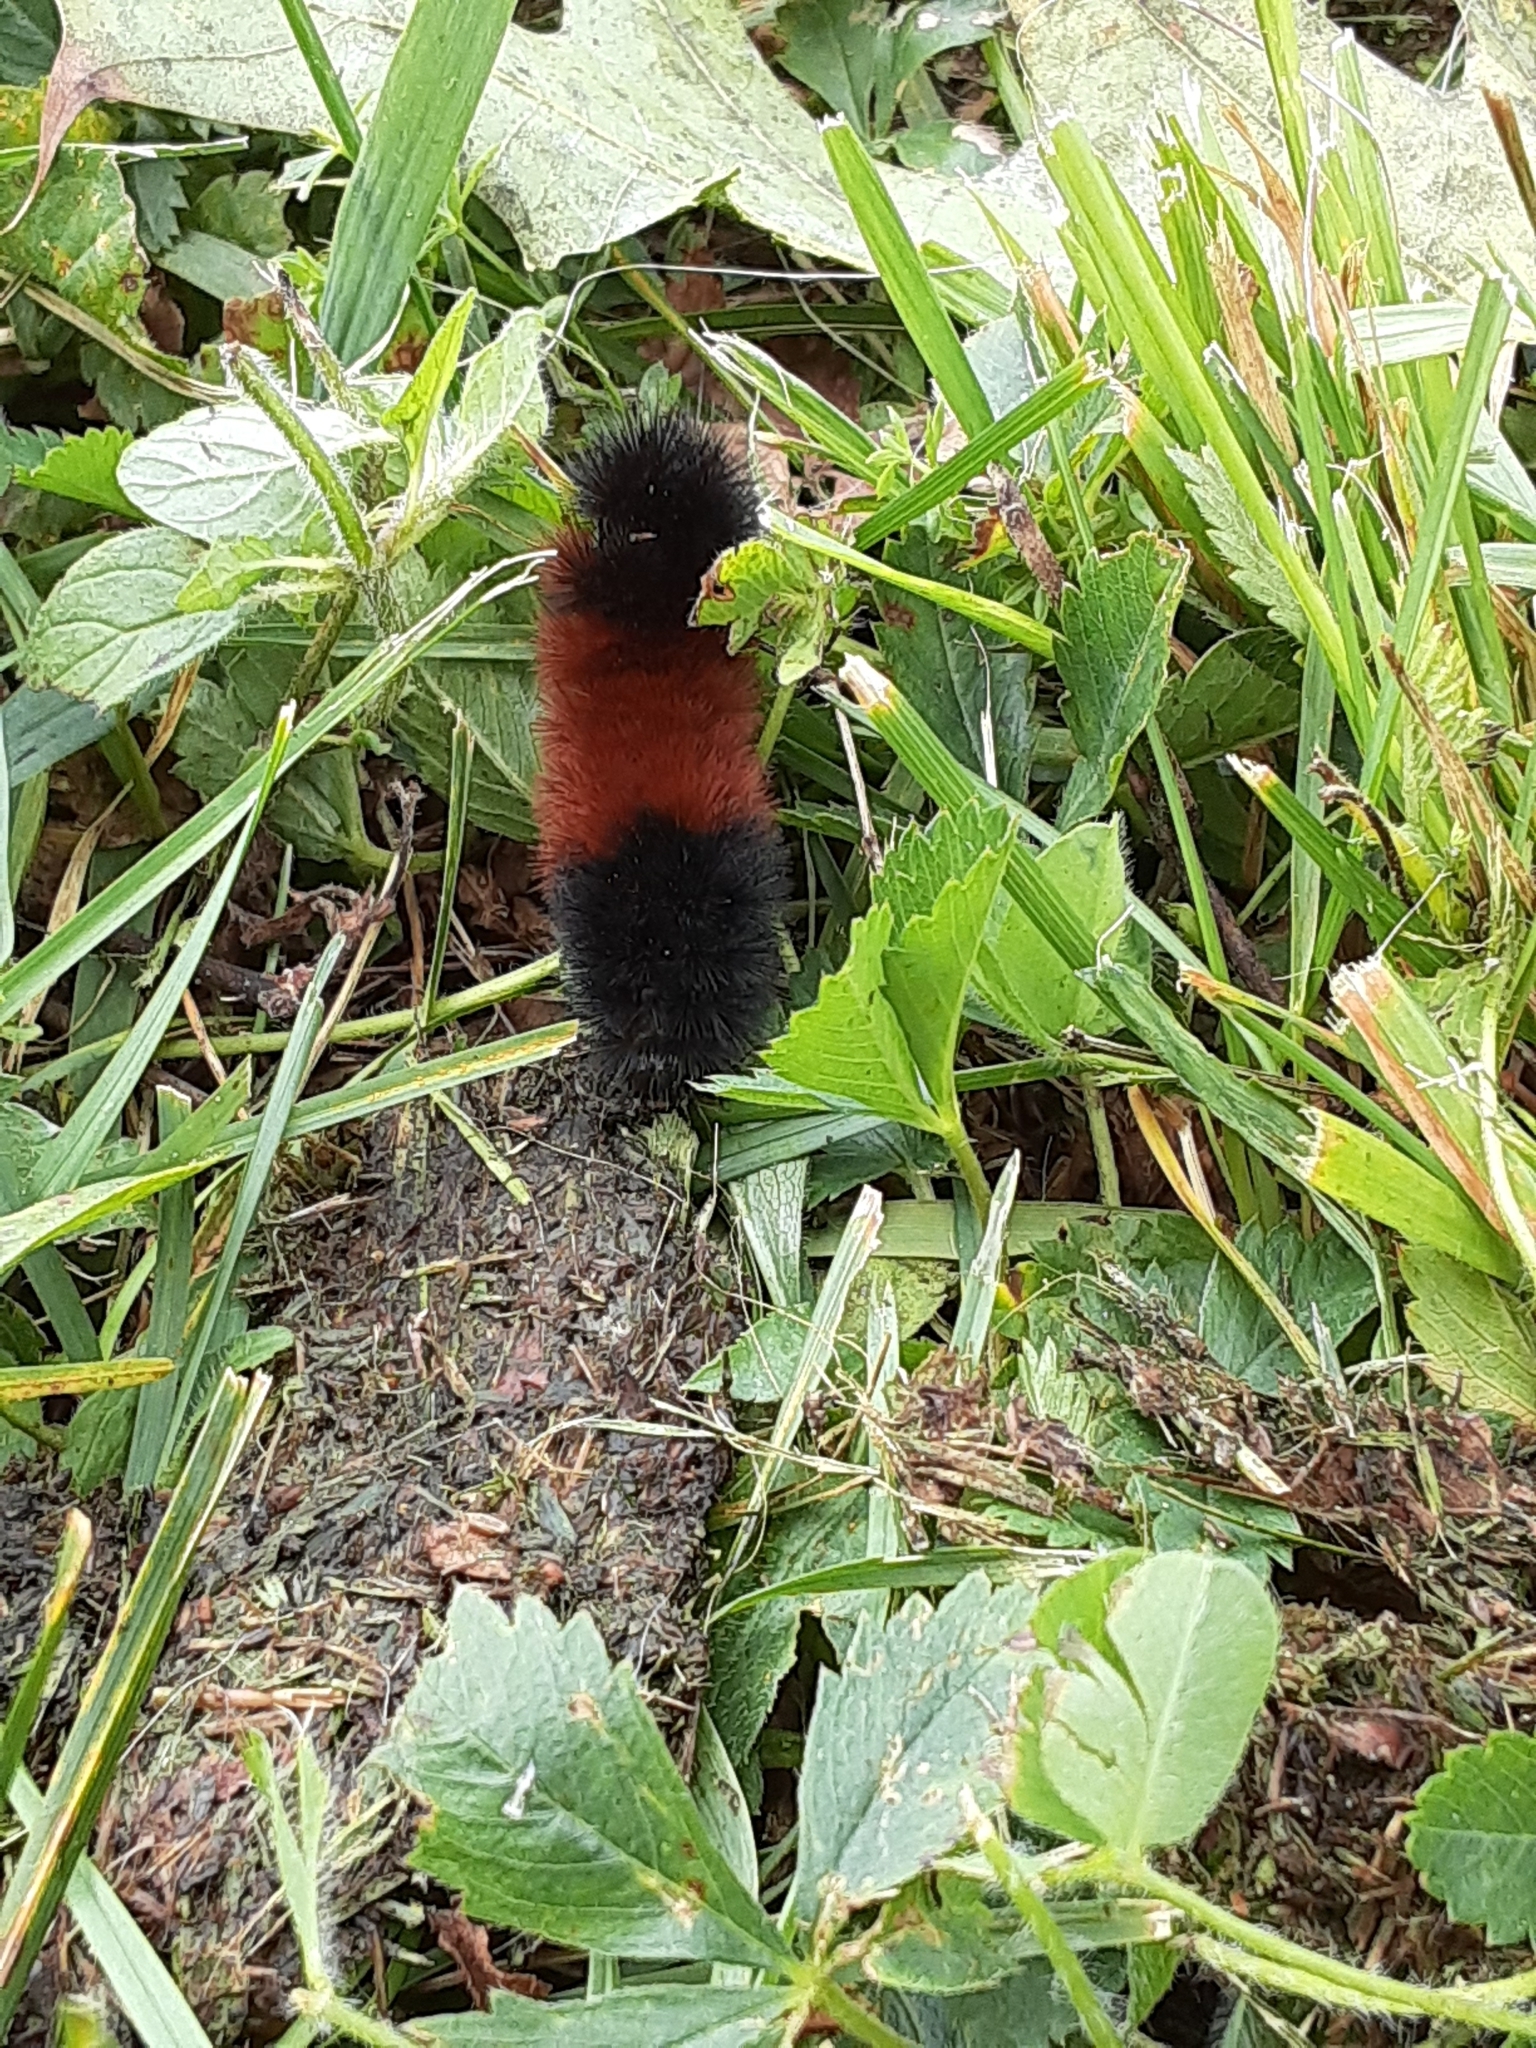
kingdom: Animalia
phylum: Arthropoda
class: Insecta
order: Lepidoptera
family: Erebidae
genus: Pyrrharctia
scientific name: Pyrrharctia isabella
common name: Isabella tiger moth
